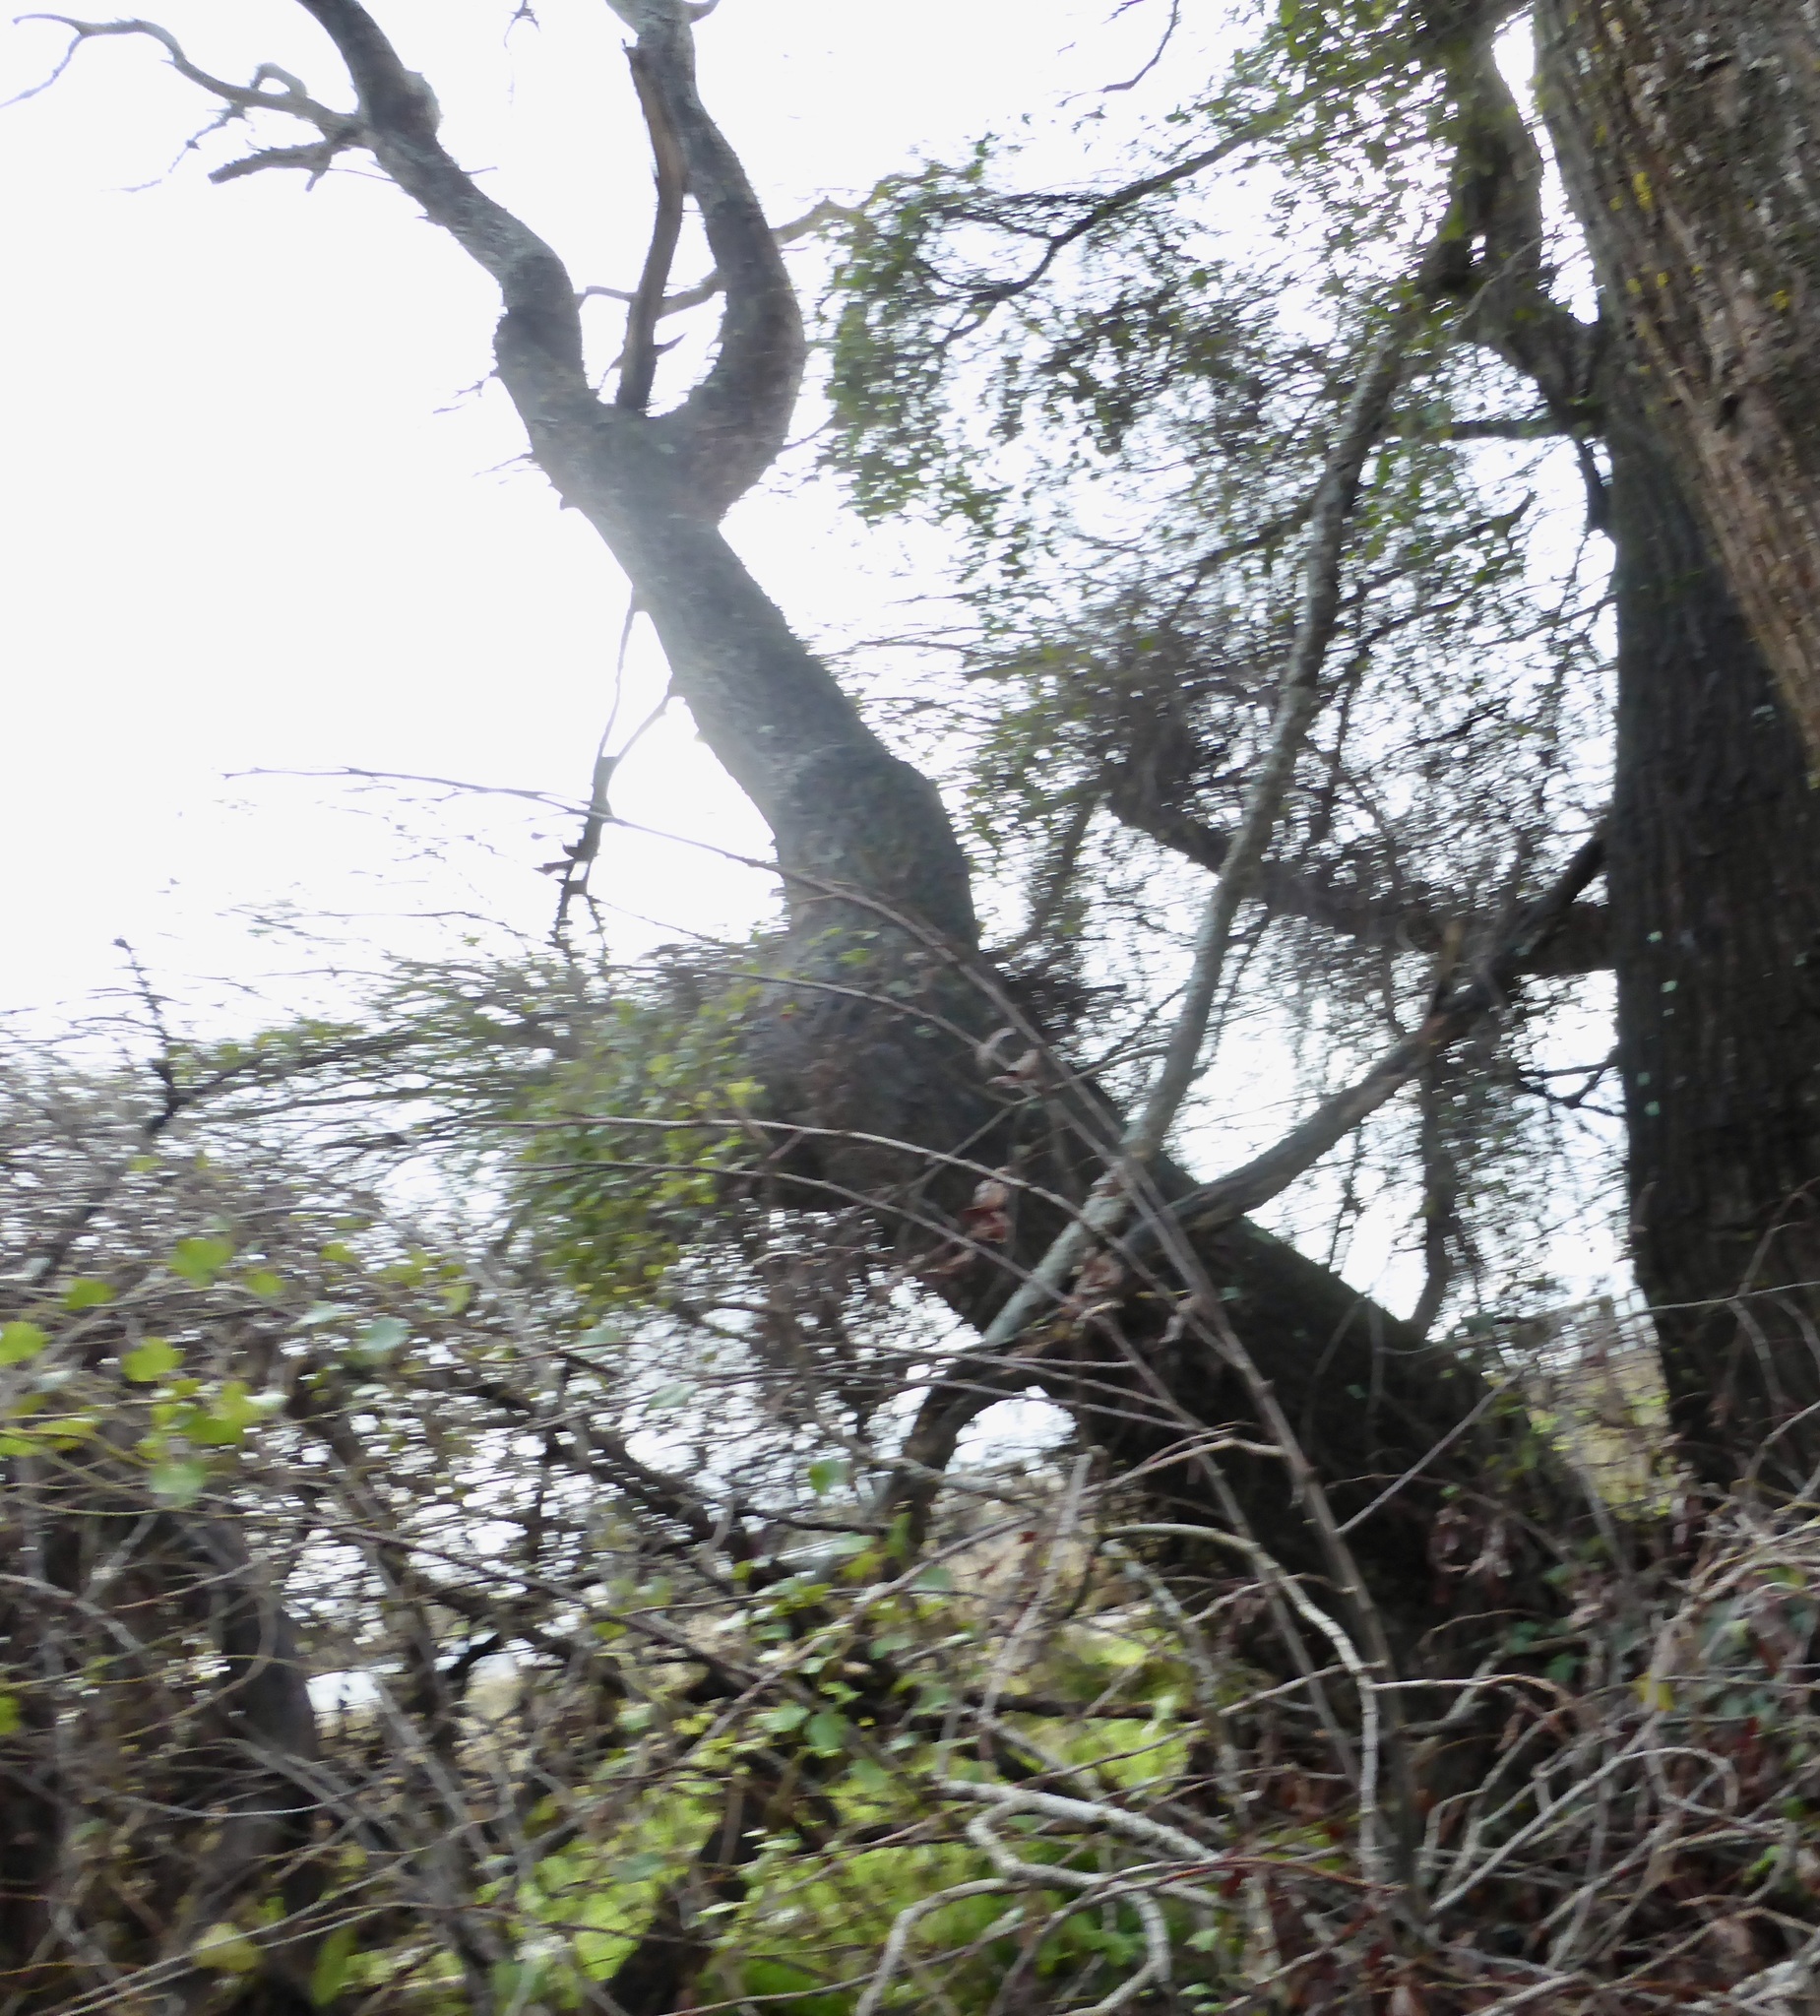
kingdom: Plantae
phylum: Tracheophyta
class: Magnoliopsida
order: Caryophyllales
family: Polygonaceae
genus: Muehlenbeckia
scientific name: Muehlenbeckia australis
